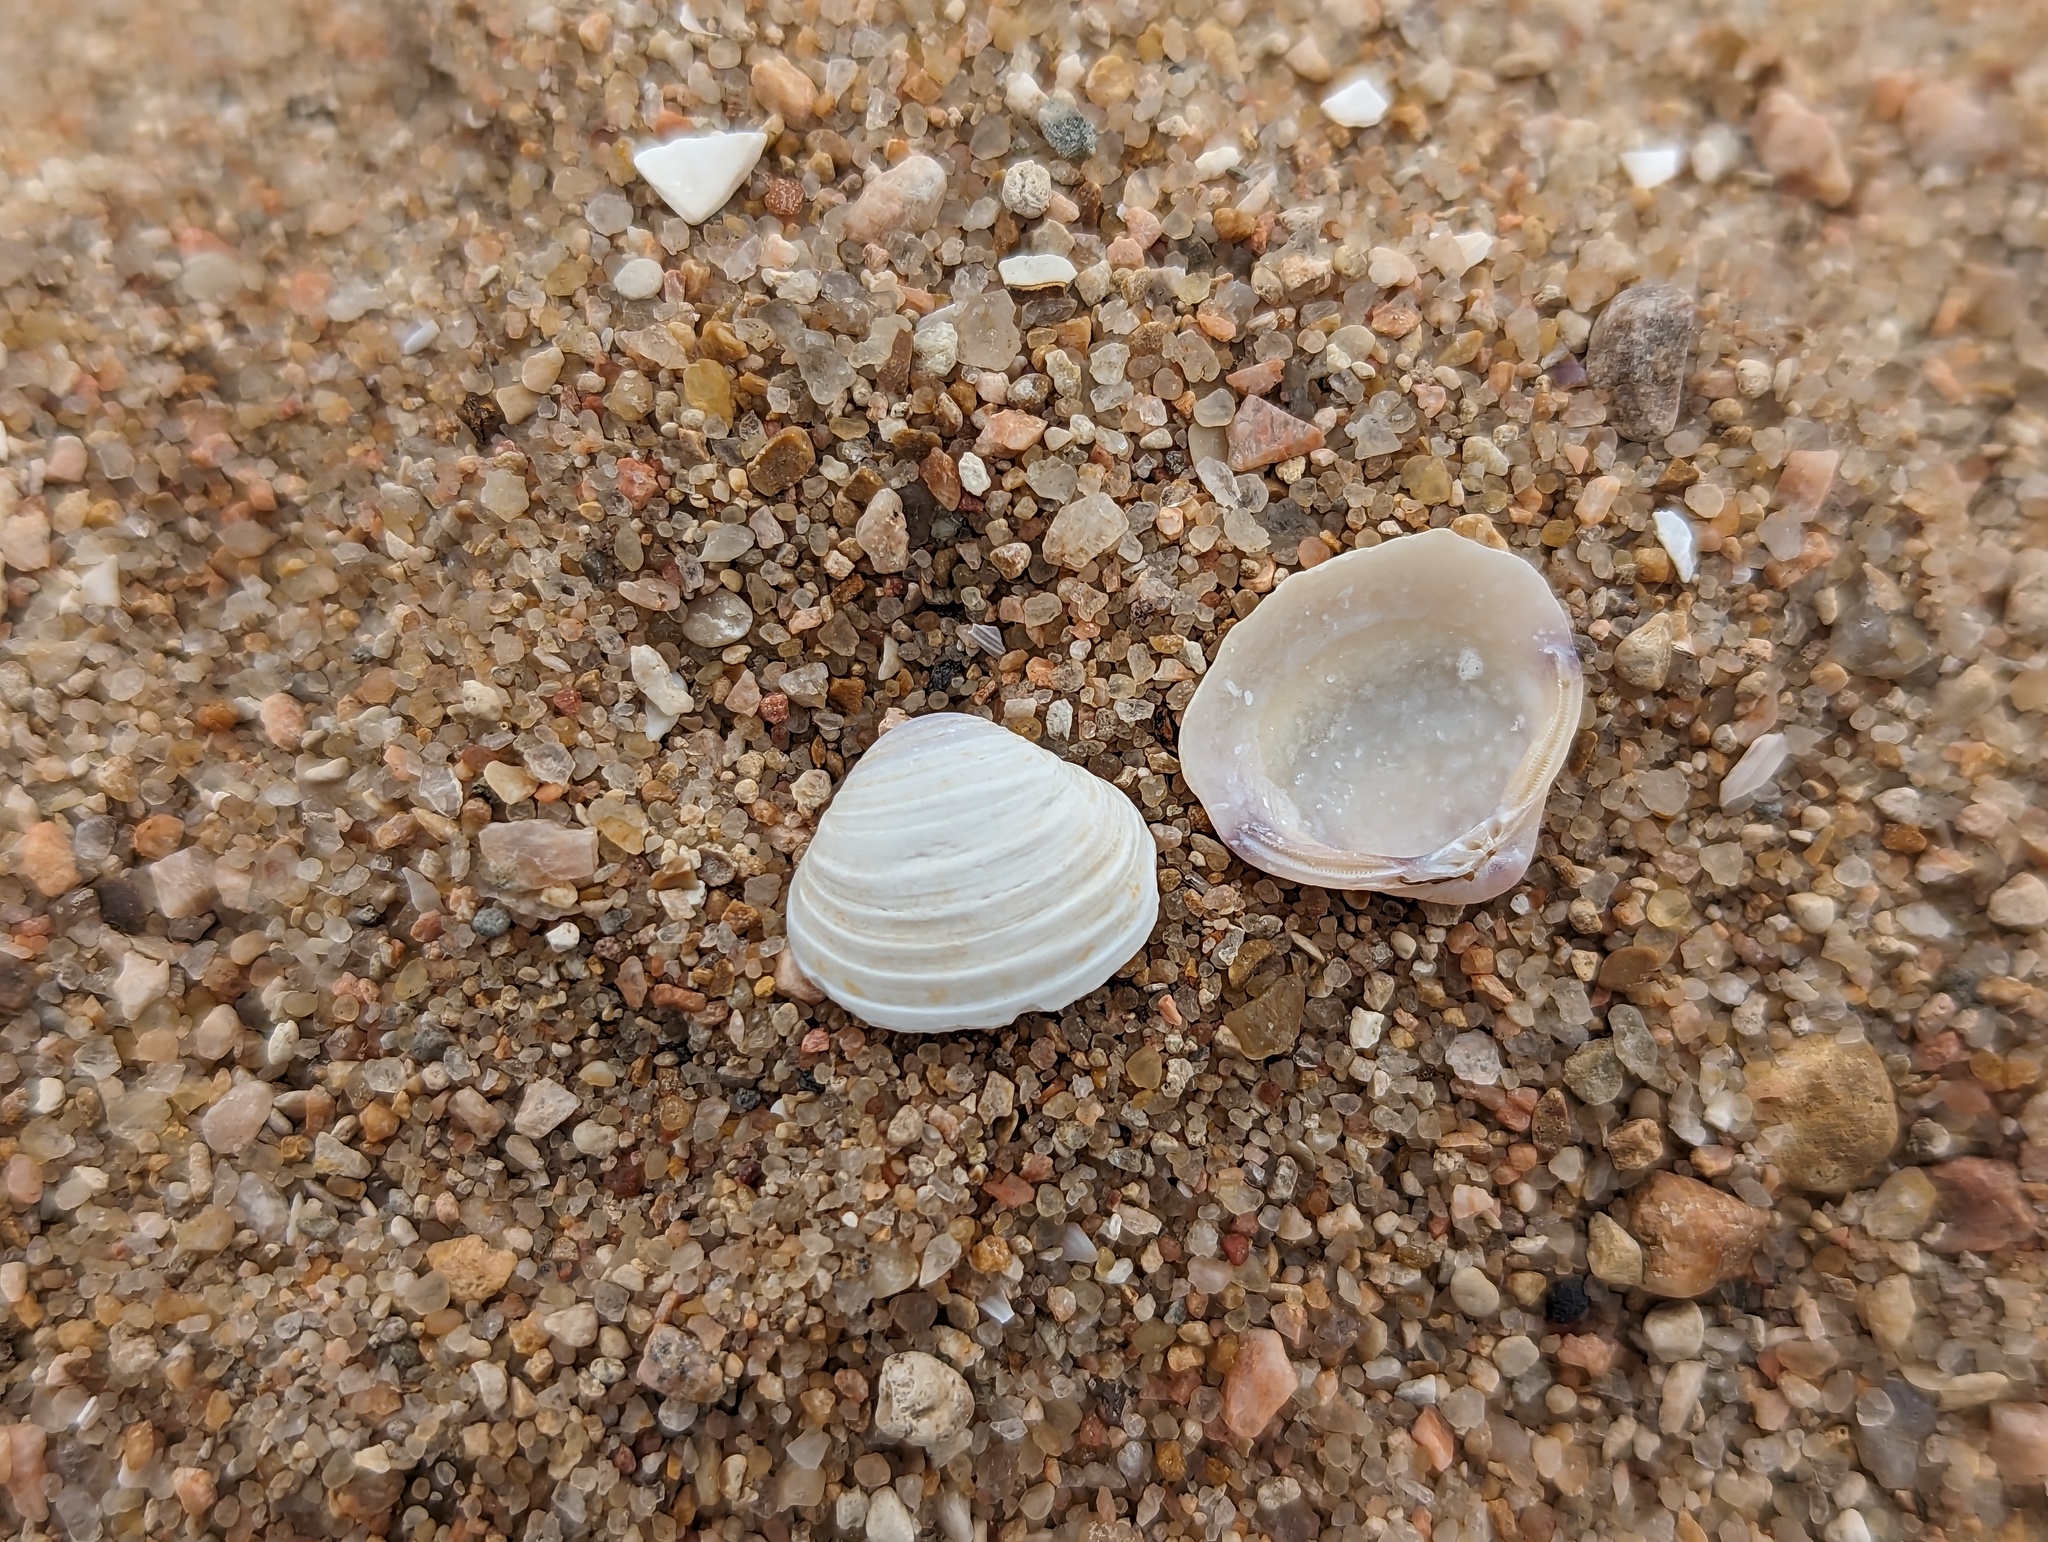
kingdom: Animalia
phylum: Mollusca
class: Bivalvia
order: Venerida
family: Cyrenidae
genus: Corbicula
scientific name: Corbicula fluminea
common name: Asian clam
